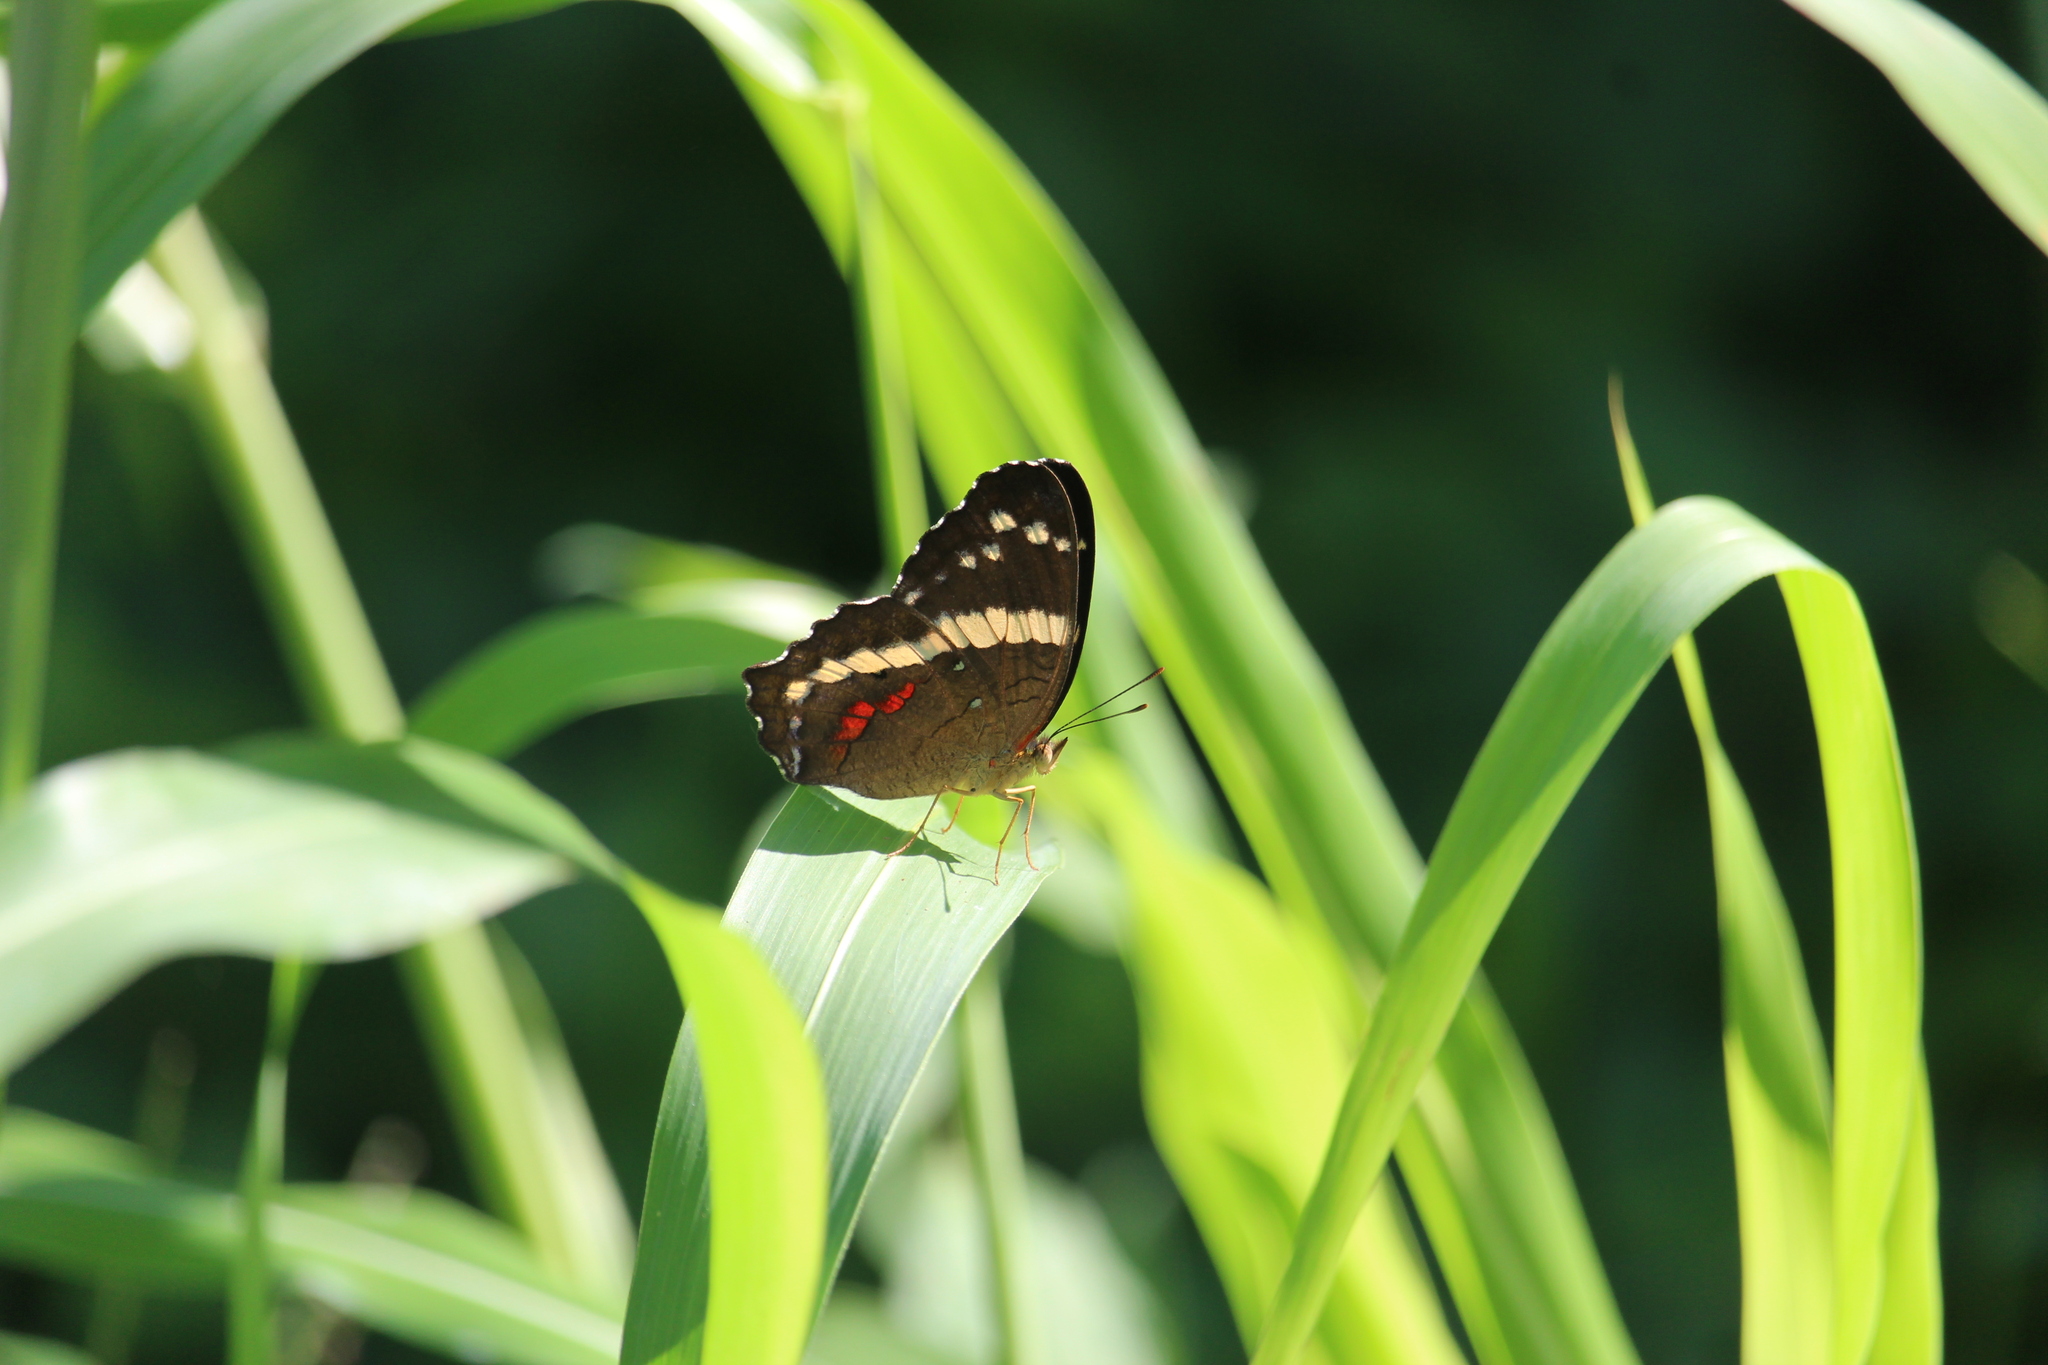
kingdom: Animalia
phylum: Arthropoda
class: Insecta
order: Lepidoptera
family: Nymphalidae
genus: Anartia
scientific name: Anartia fatima
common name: Banded peacock
